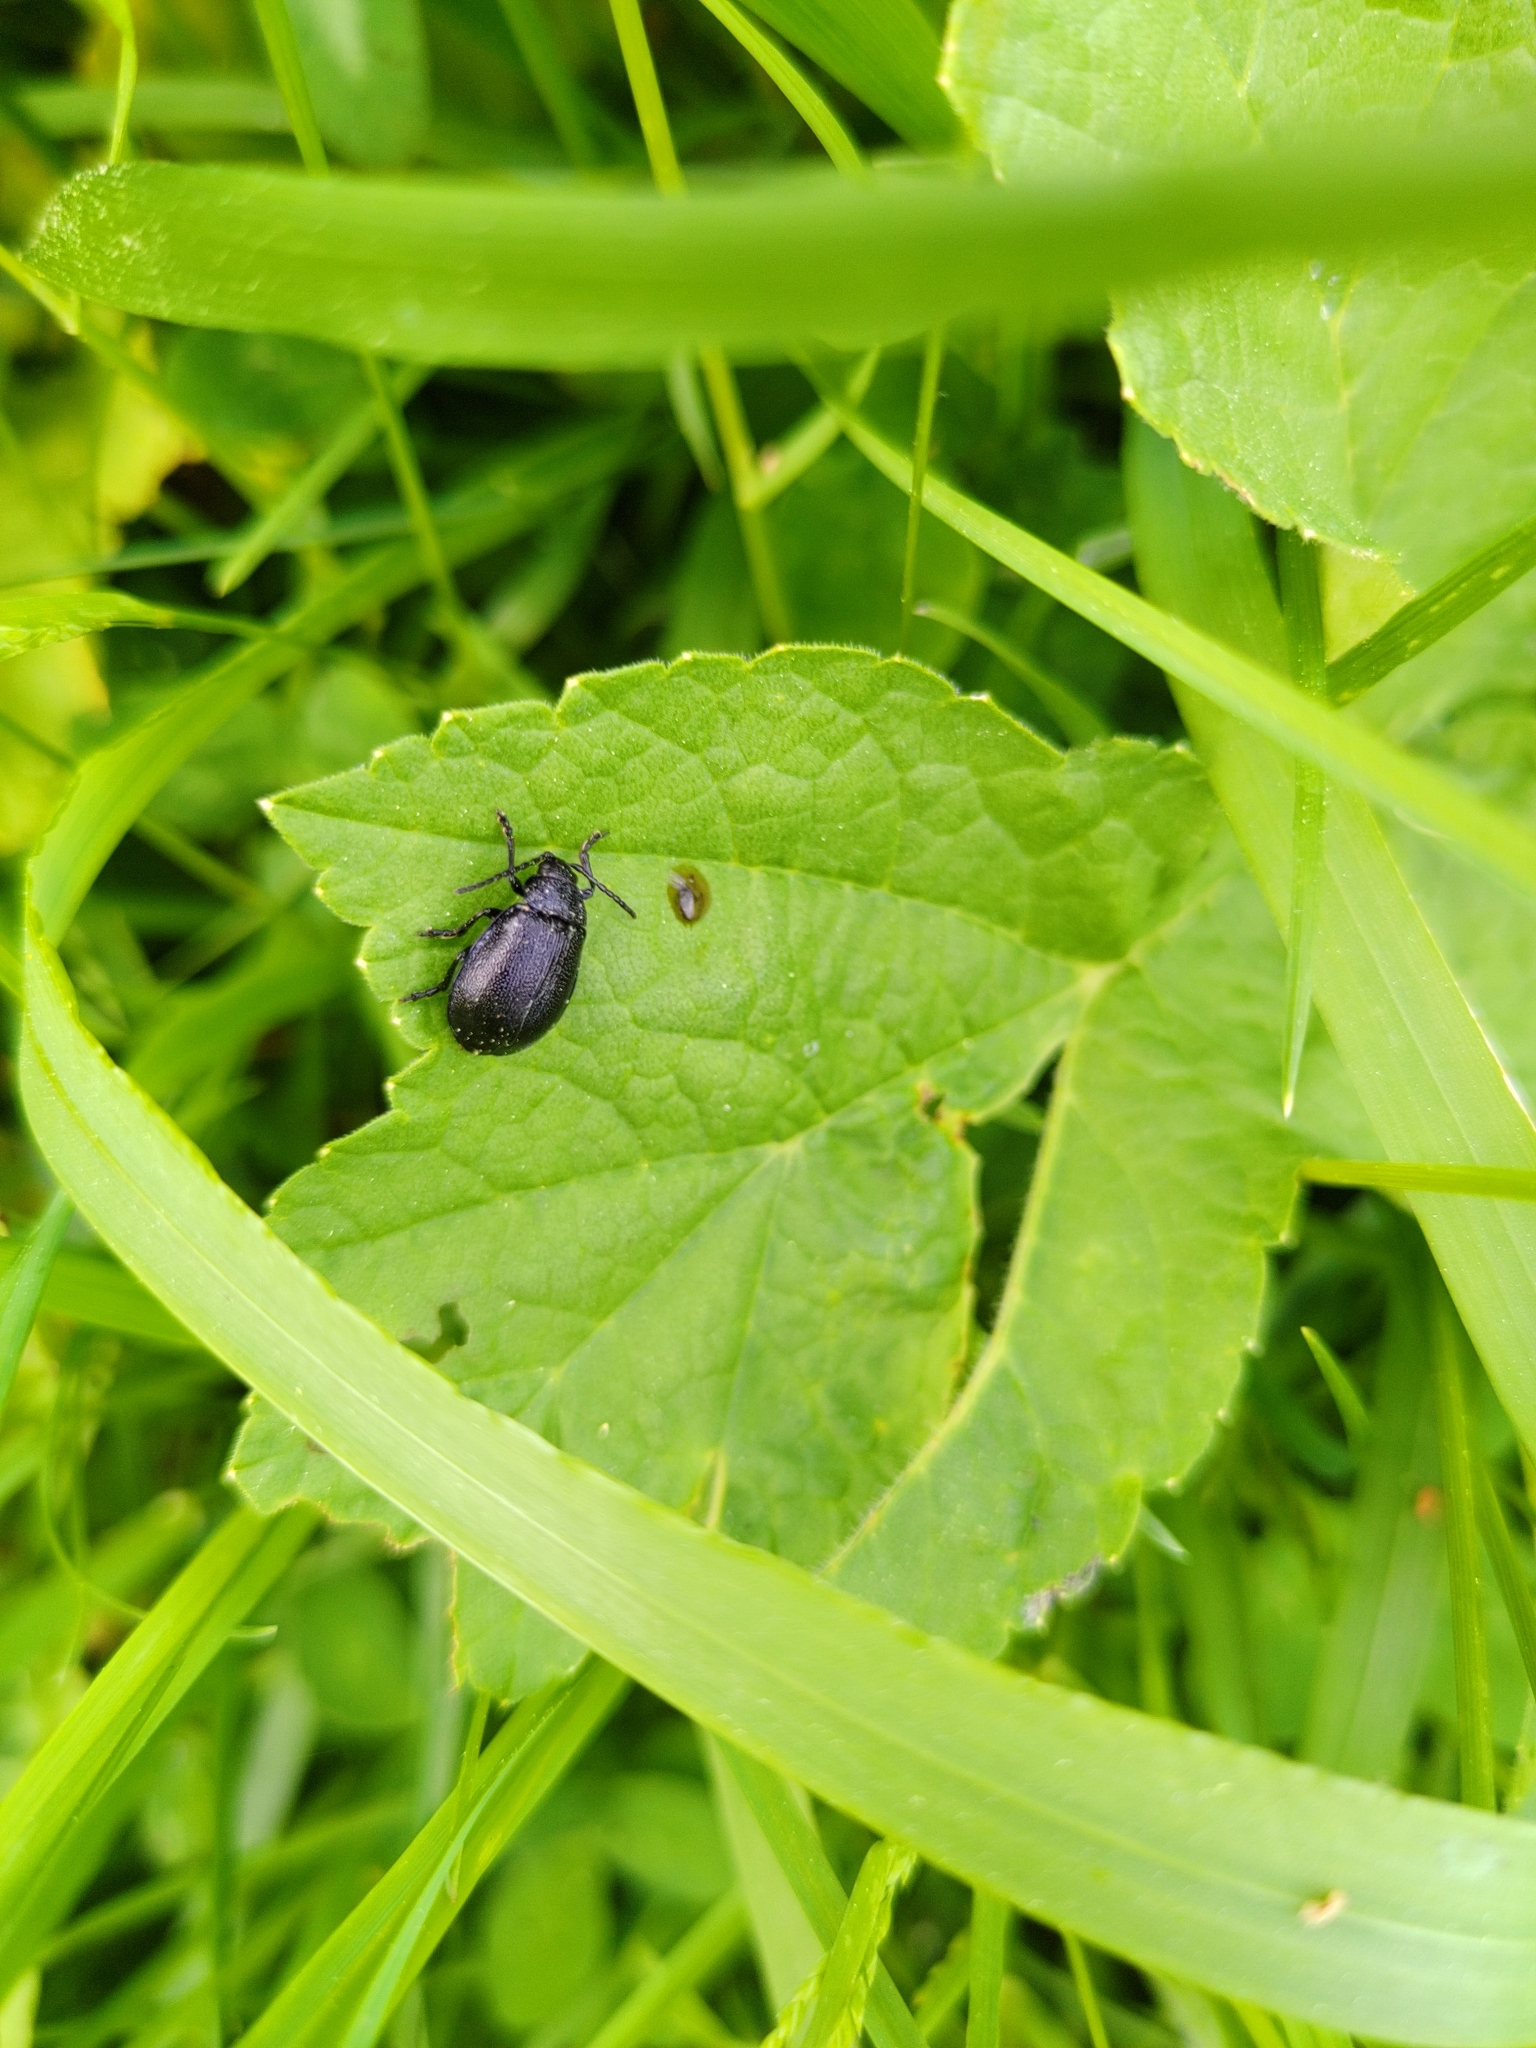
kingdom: Animalia
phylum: Arthropoda
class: Insecta
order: Coleoptera
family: Chrysomelidae
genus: Galeruca
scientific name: Galeruca tanaceti
